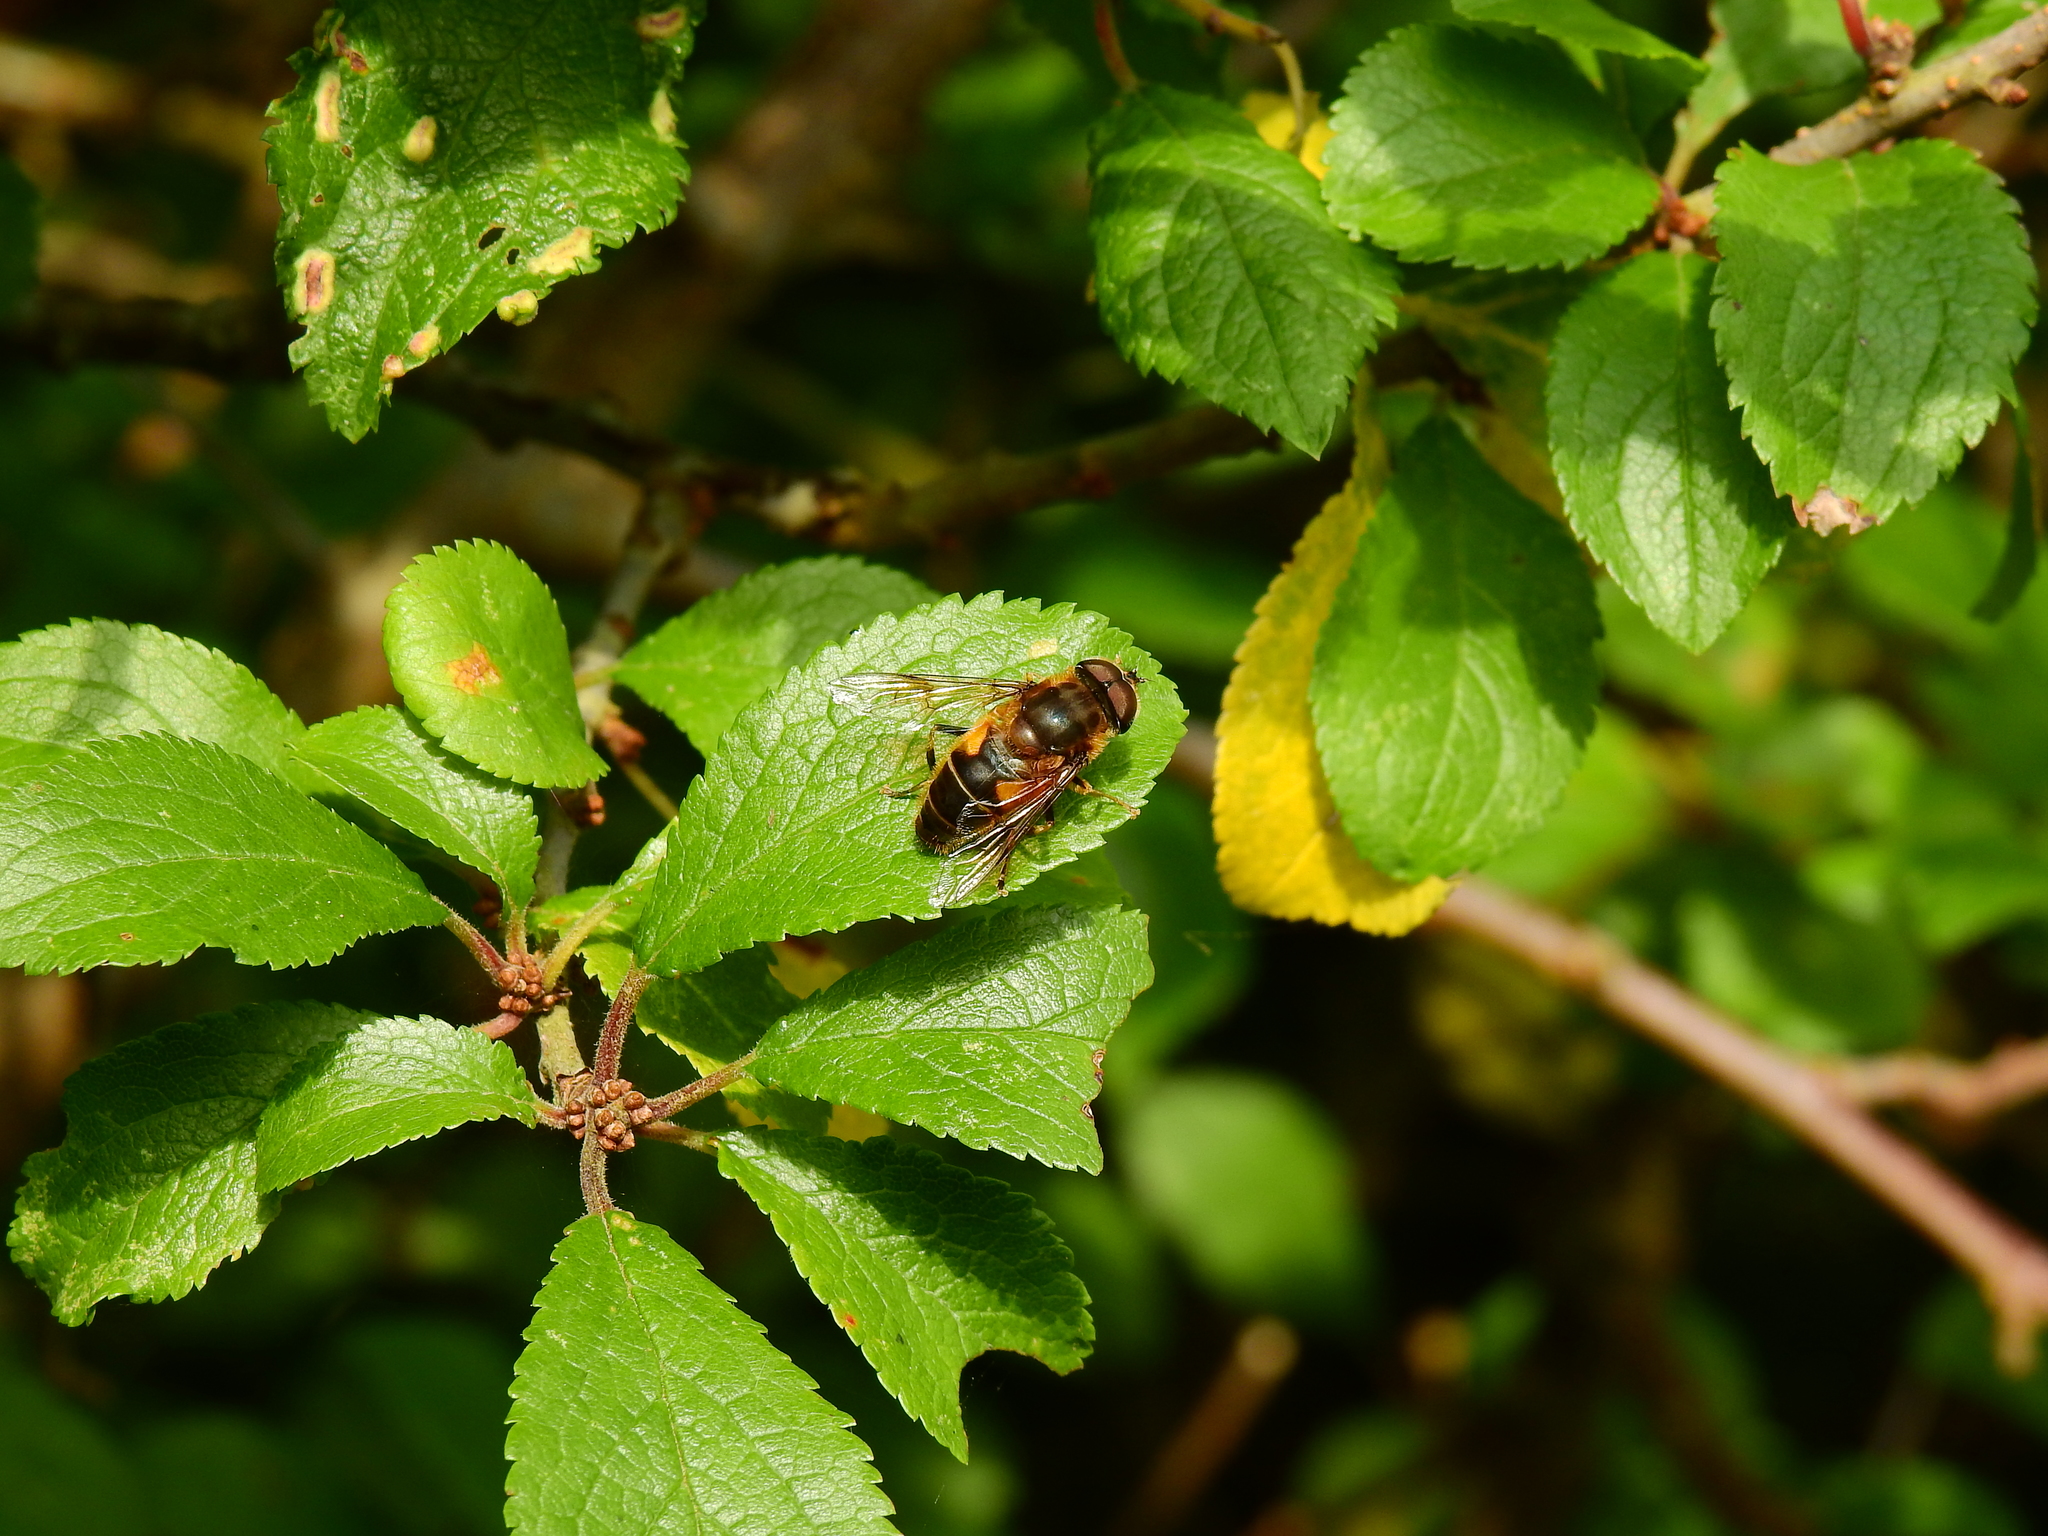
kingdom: Animalia
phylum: Arthropoda
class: Insecta
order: Diptera
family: Syrphidae
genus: Eristalis
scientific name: Eristalis pertinax
